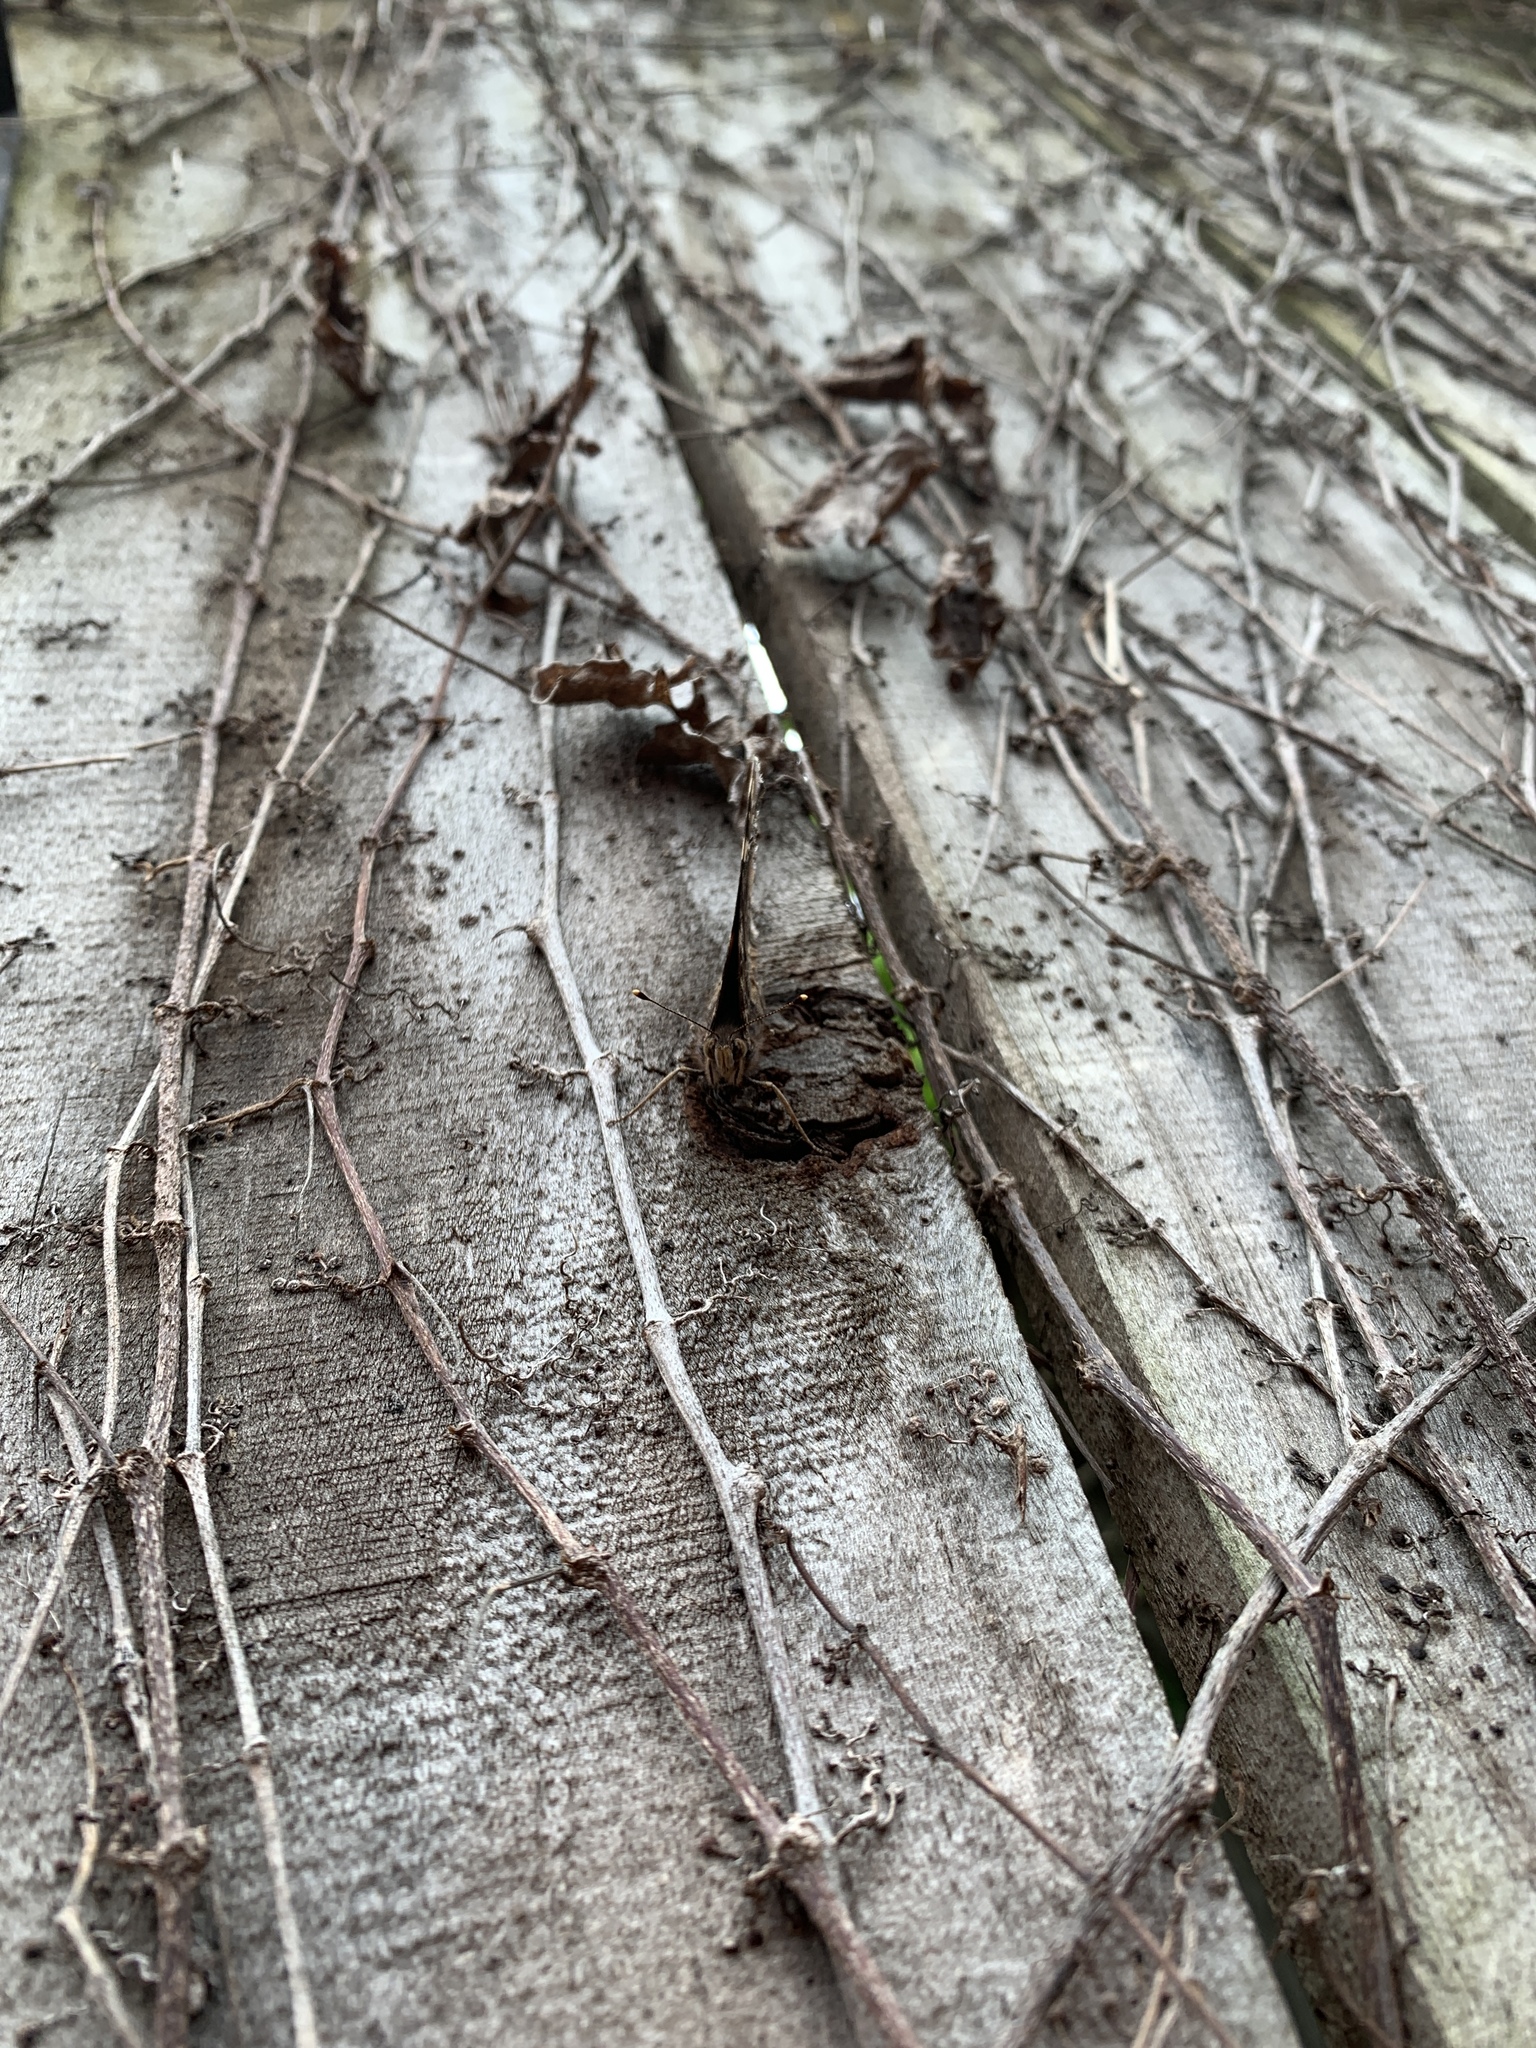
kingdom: Animalia
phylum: Arthropoda
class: Insecta
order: Lepidoptera
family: Nymphalidae
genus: Vanessa
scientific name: Vanessa atalanta
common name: Red admiral
